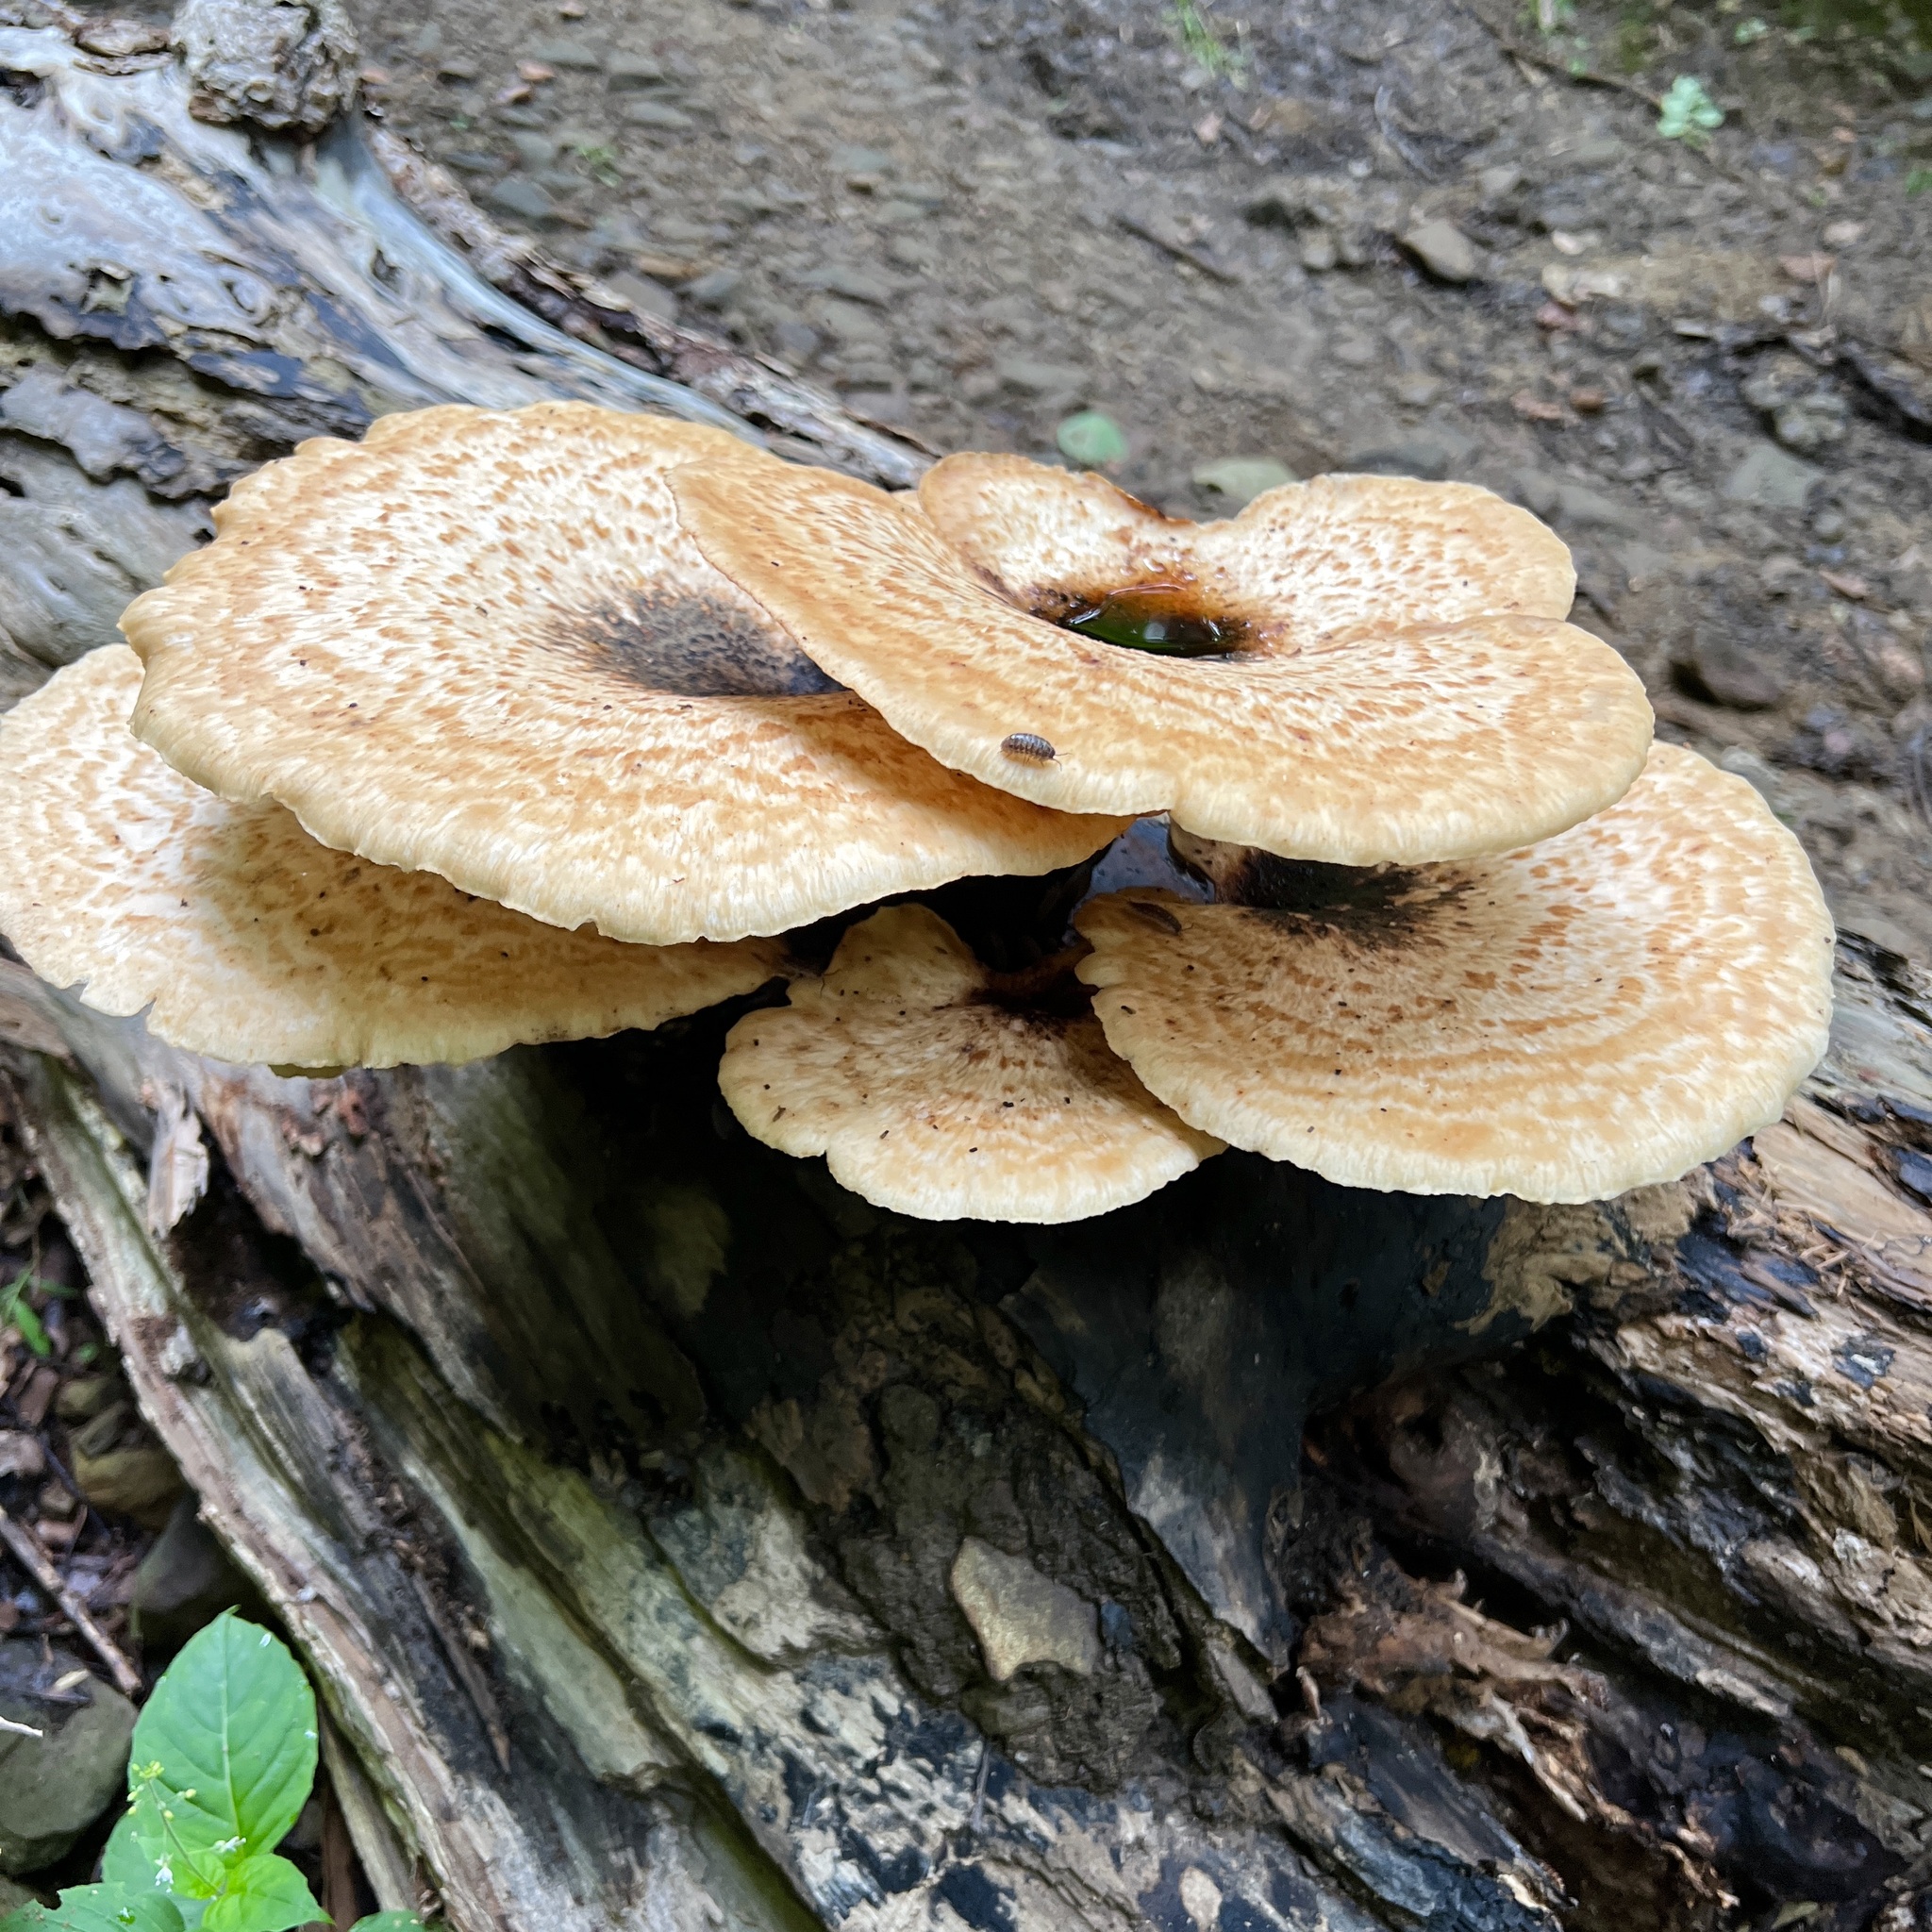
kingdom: Fungi
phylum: Basidiomycota
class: Agaricomycetes
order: Polyporales
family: Polyporaceae
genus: Cerioporus
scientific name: Cerioporus squamosus
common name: Dryad's saddle
